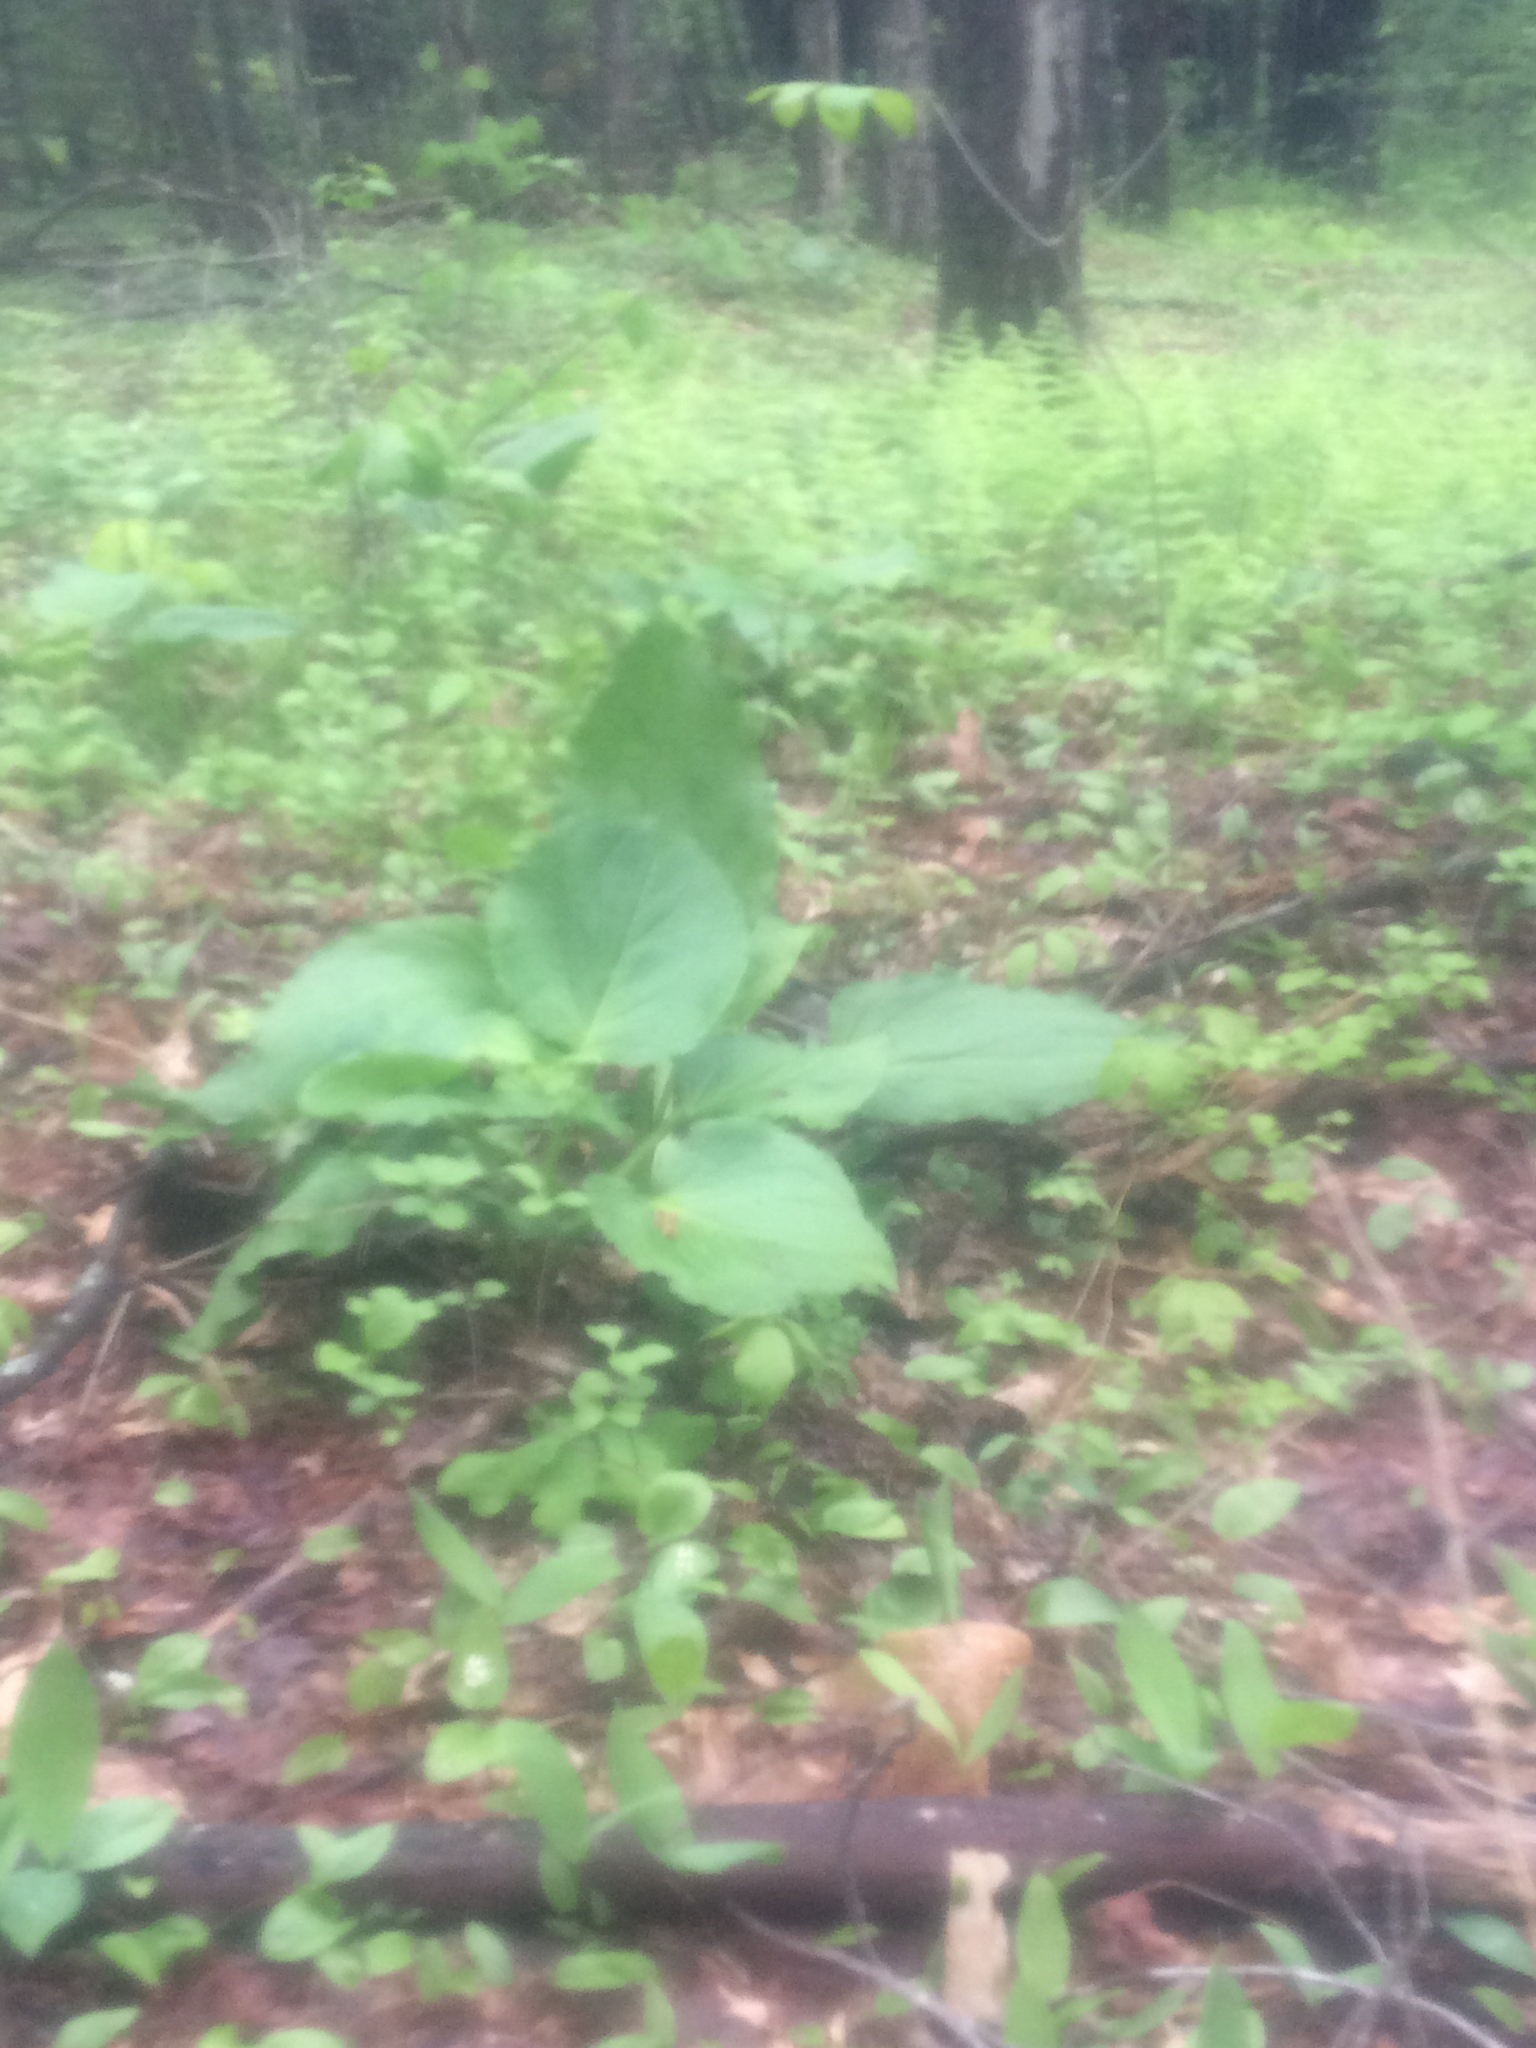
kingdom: Plantae
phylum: Tracheophyta
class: Liliopsida
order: Alismatales
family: Araceae
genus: Symplocarpus
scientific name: Symplocarpus foetidus
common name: Eastern skunk cabbage
